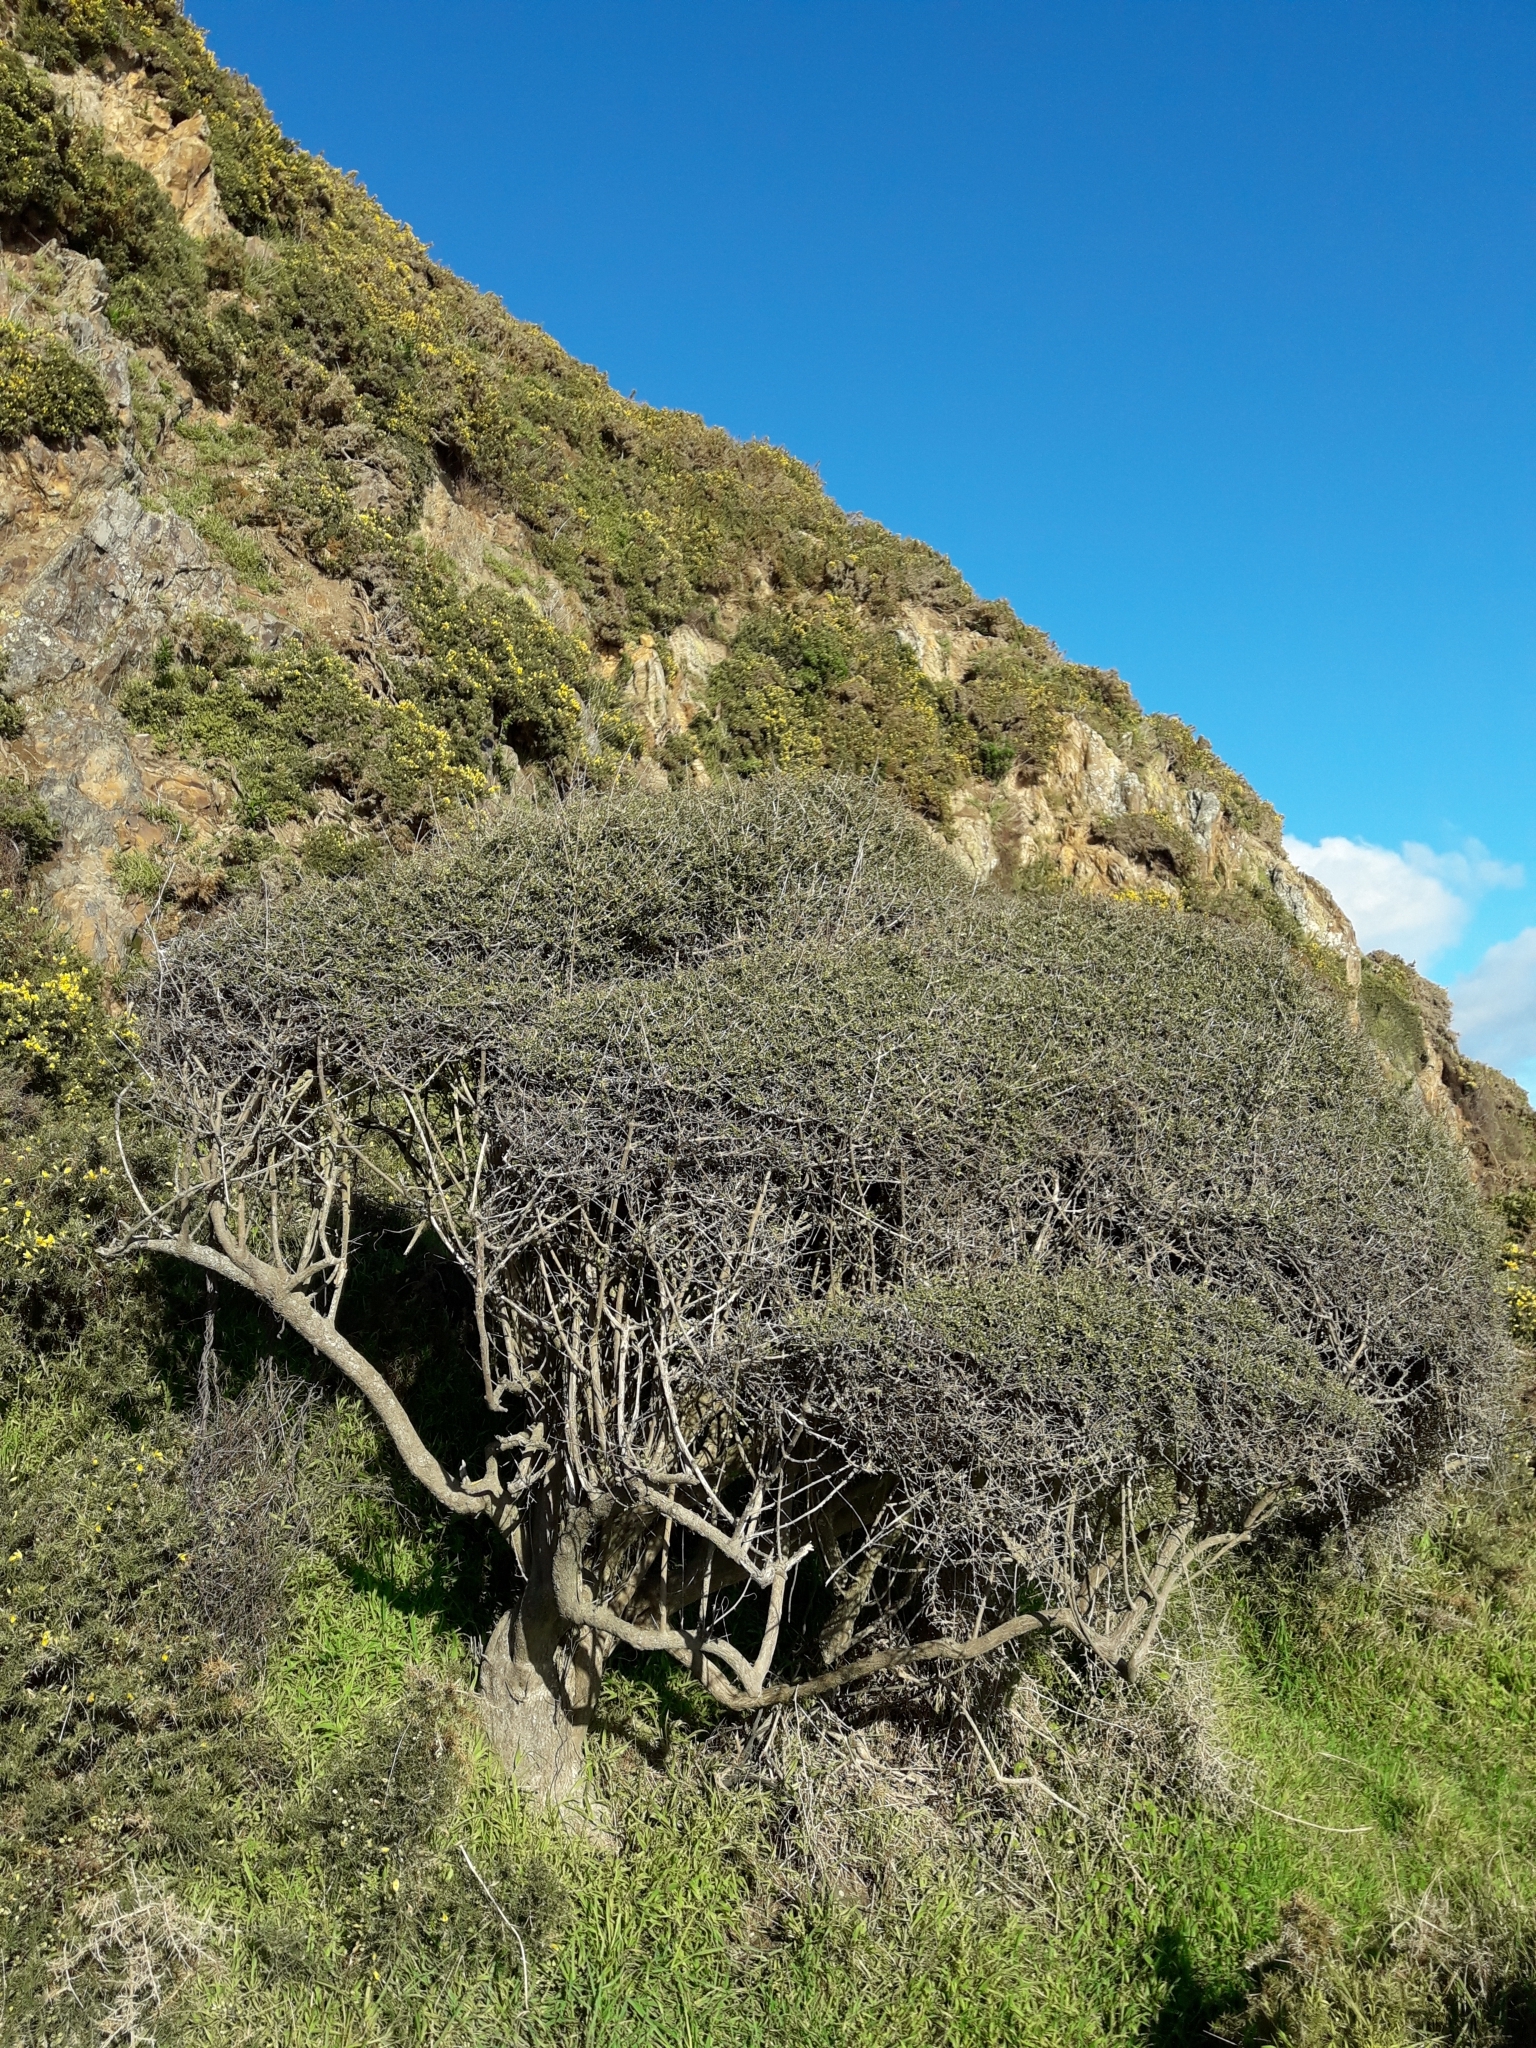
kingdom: Plantae
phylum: Tracheophyta
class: Magnoliopsida
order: Gentianales
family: Rubiaceae
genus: Coprosma
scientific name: Coprosma propinqua
